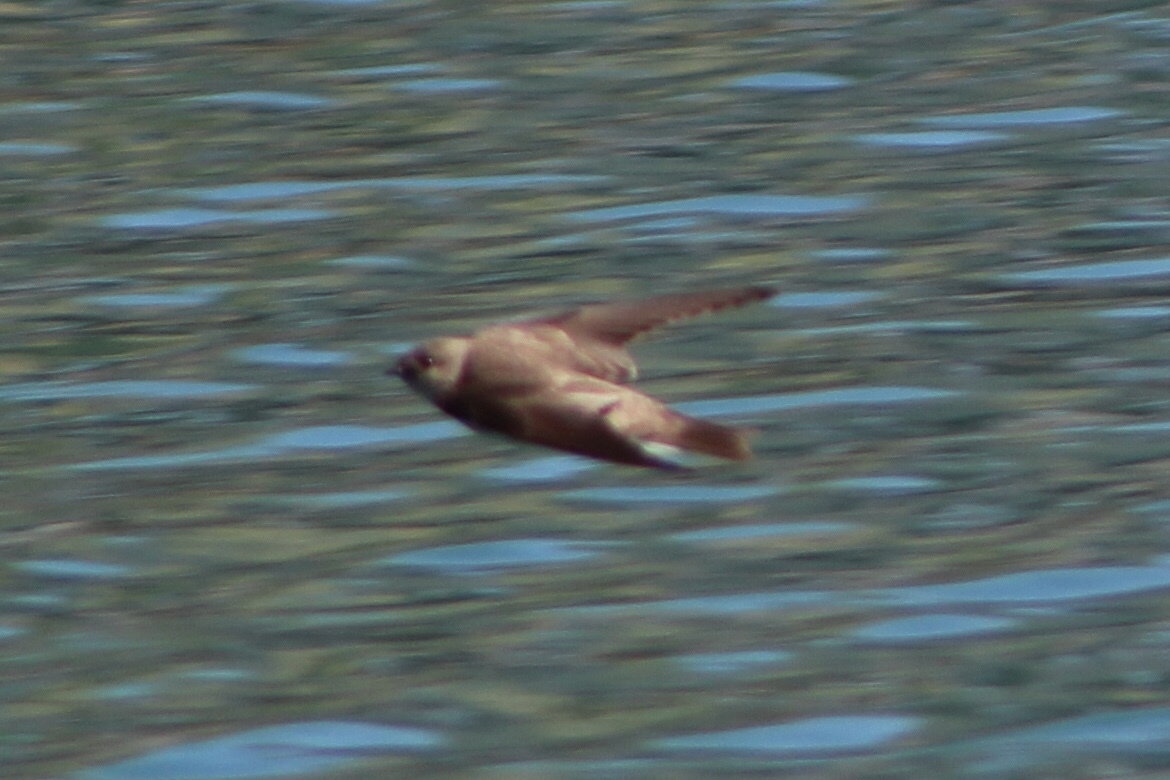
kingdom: Animalia
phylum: Chordata
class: Aves
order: Passeriformes
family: Hirundinidae
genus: Stelgidopteryx
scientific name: Stelgidopteryx serripennis
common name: Northern rough-winged swallow
